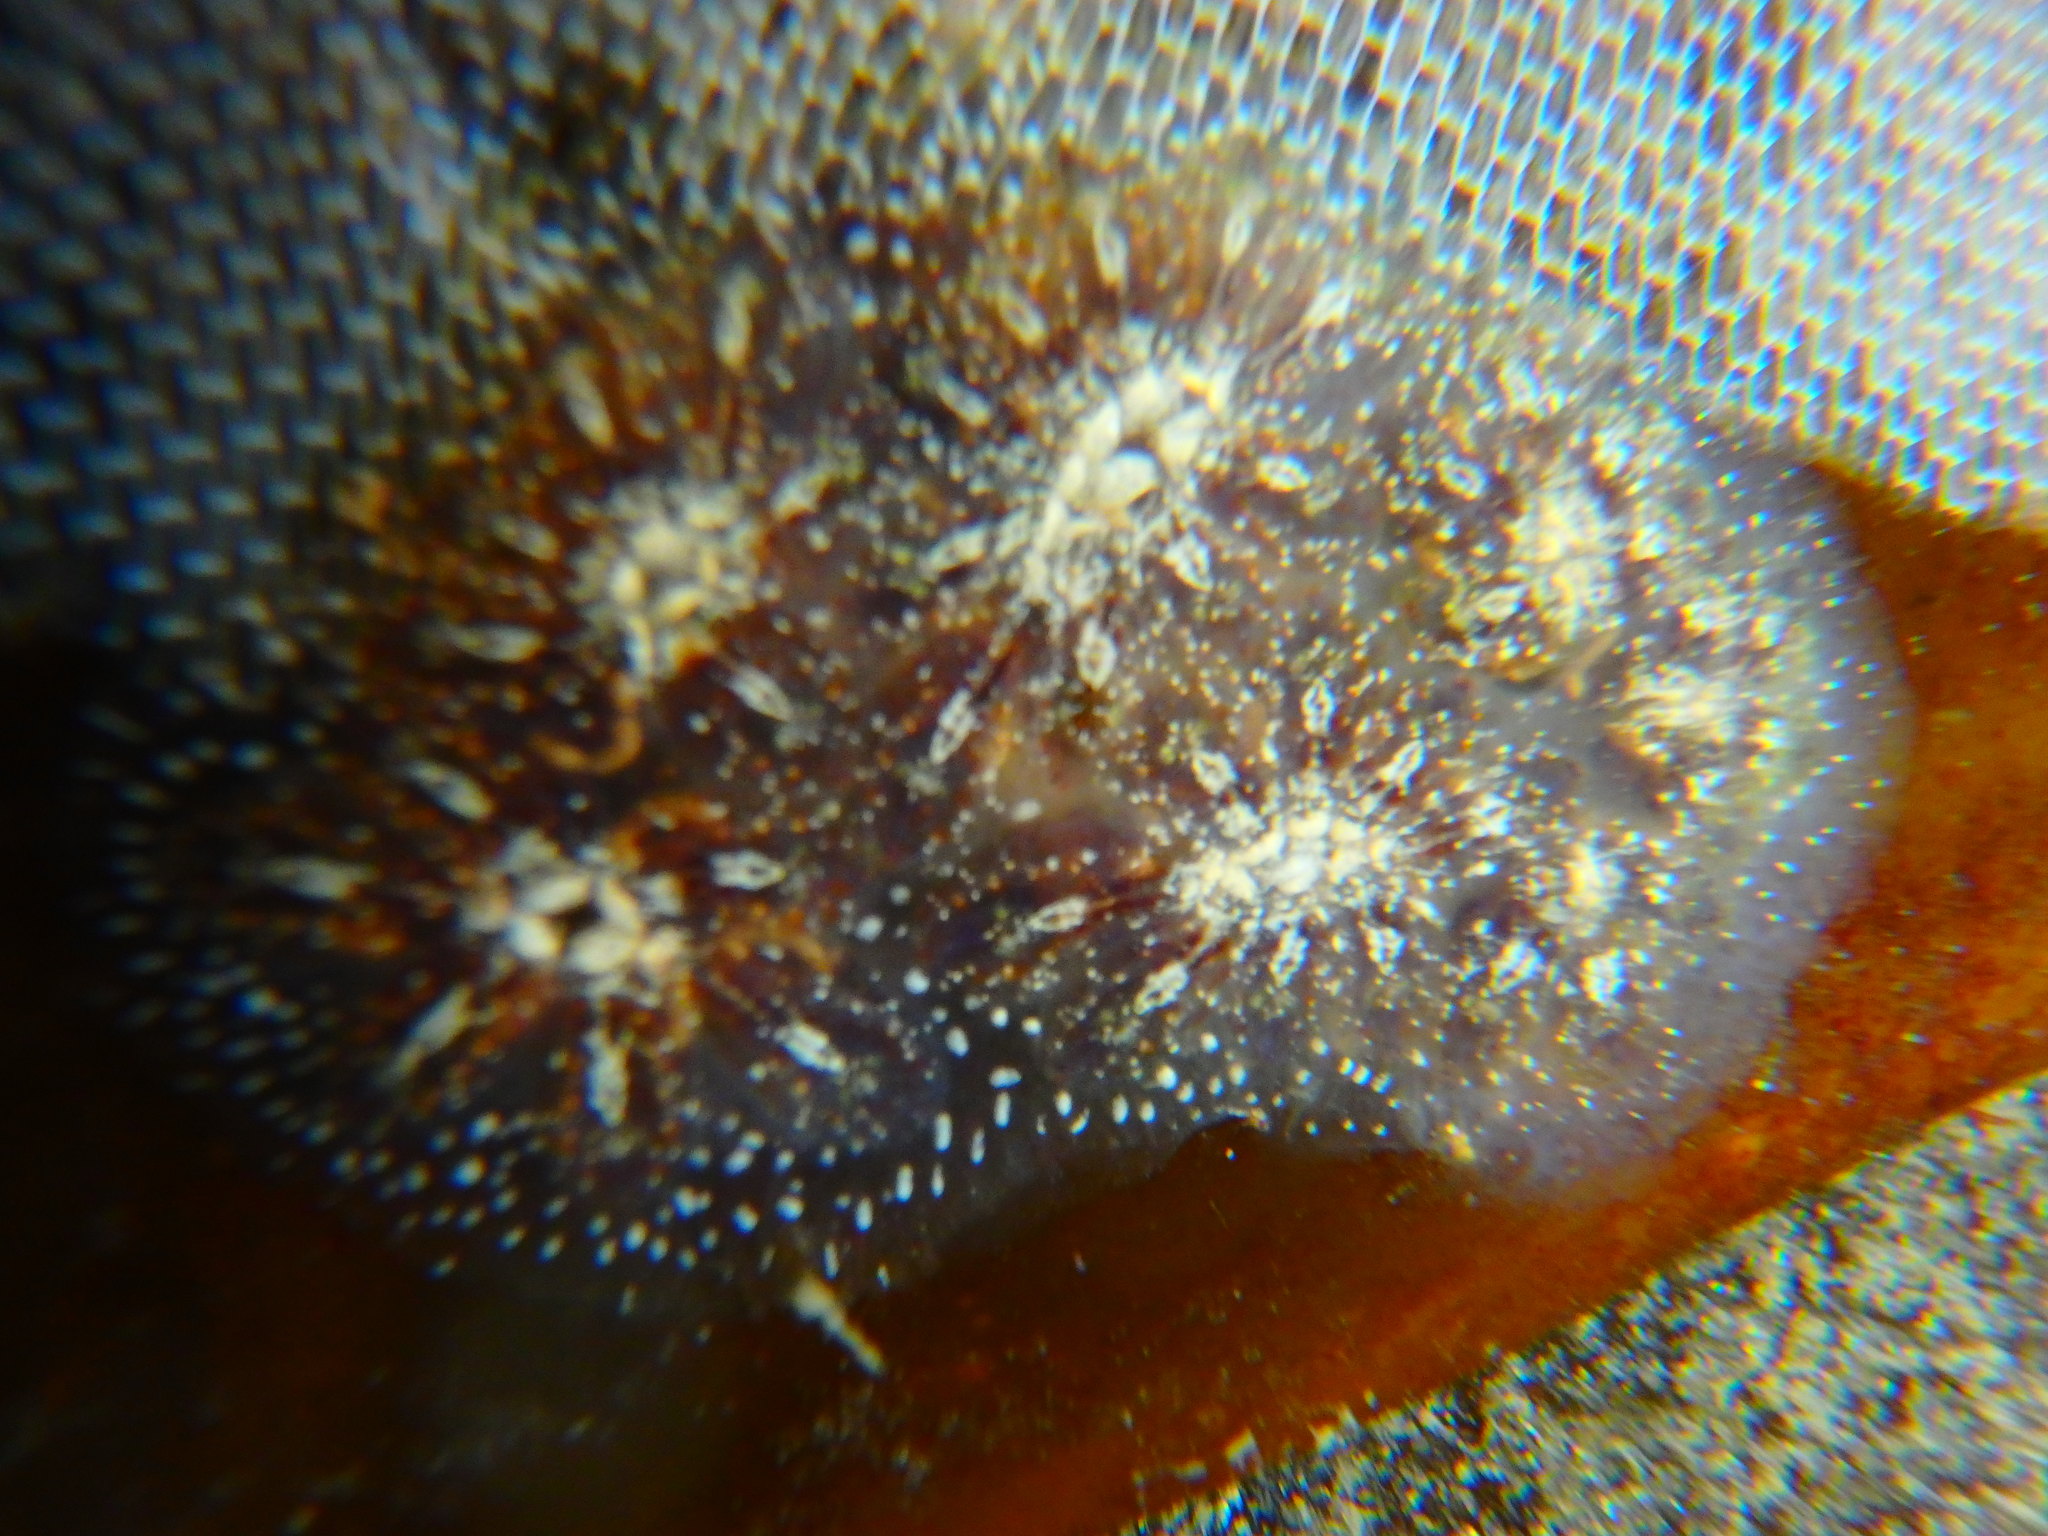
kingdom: Animalia
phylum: Chordata
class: Ascidiacea
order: Stolidobranchia
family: Styelidae
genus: Botryllus
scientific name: Botryllus schlosseri
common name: Golden star tunicate
